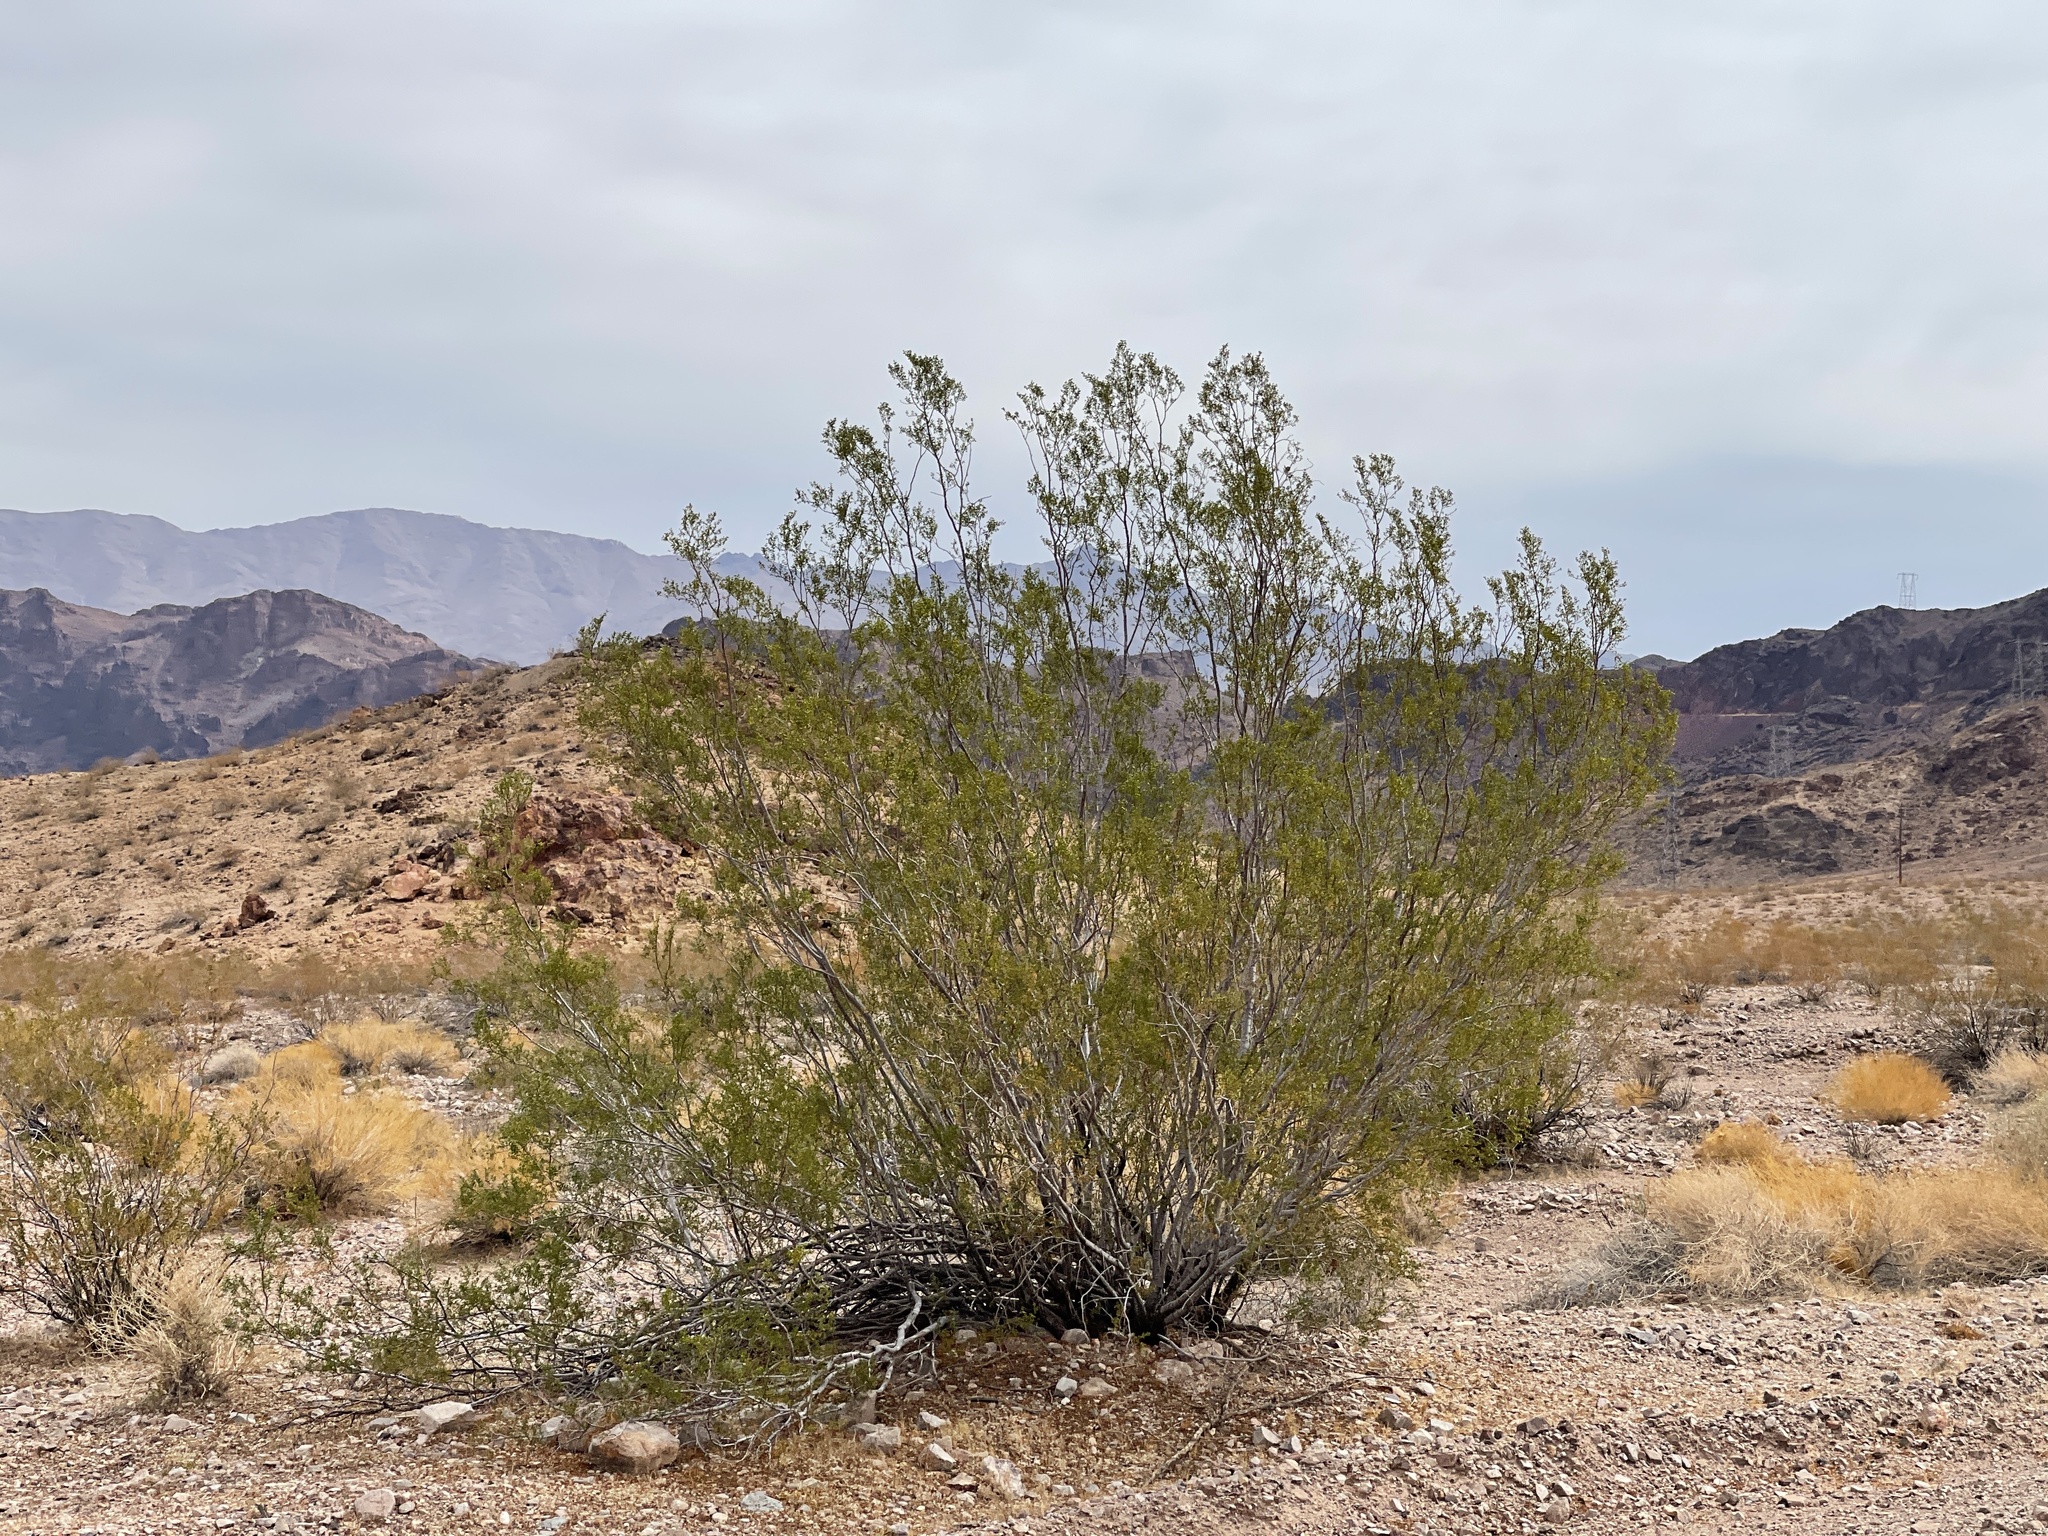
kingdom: Plantae
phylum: Tracheophyta
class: Magnoliopsida
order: Zygophyllales
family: Zygophyllaceae
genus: Larrea
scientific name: Larrea tridentata
